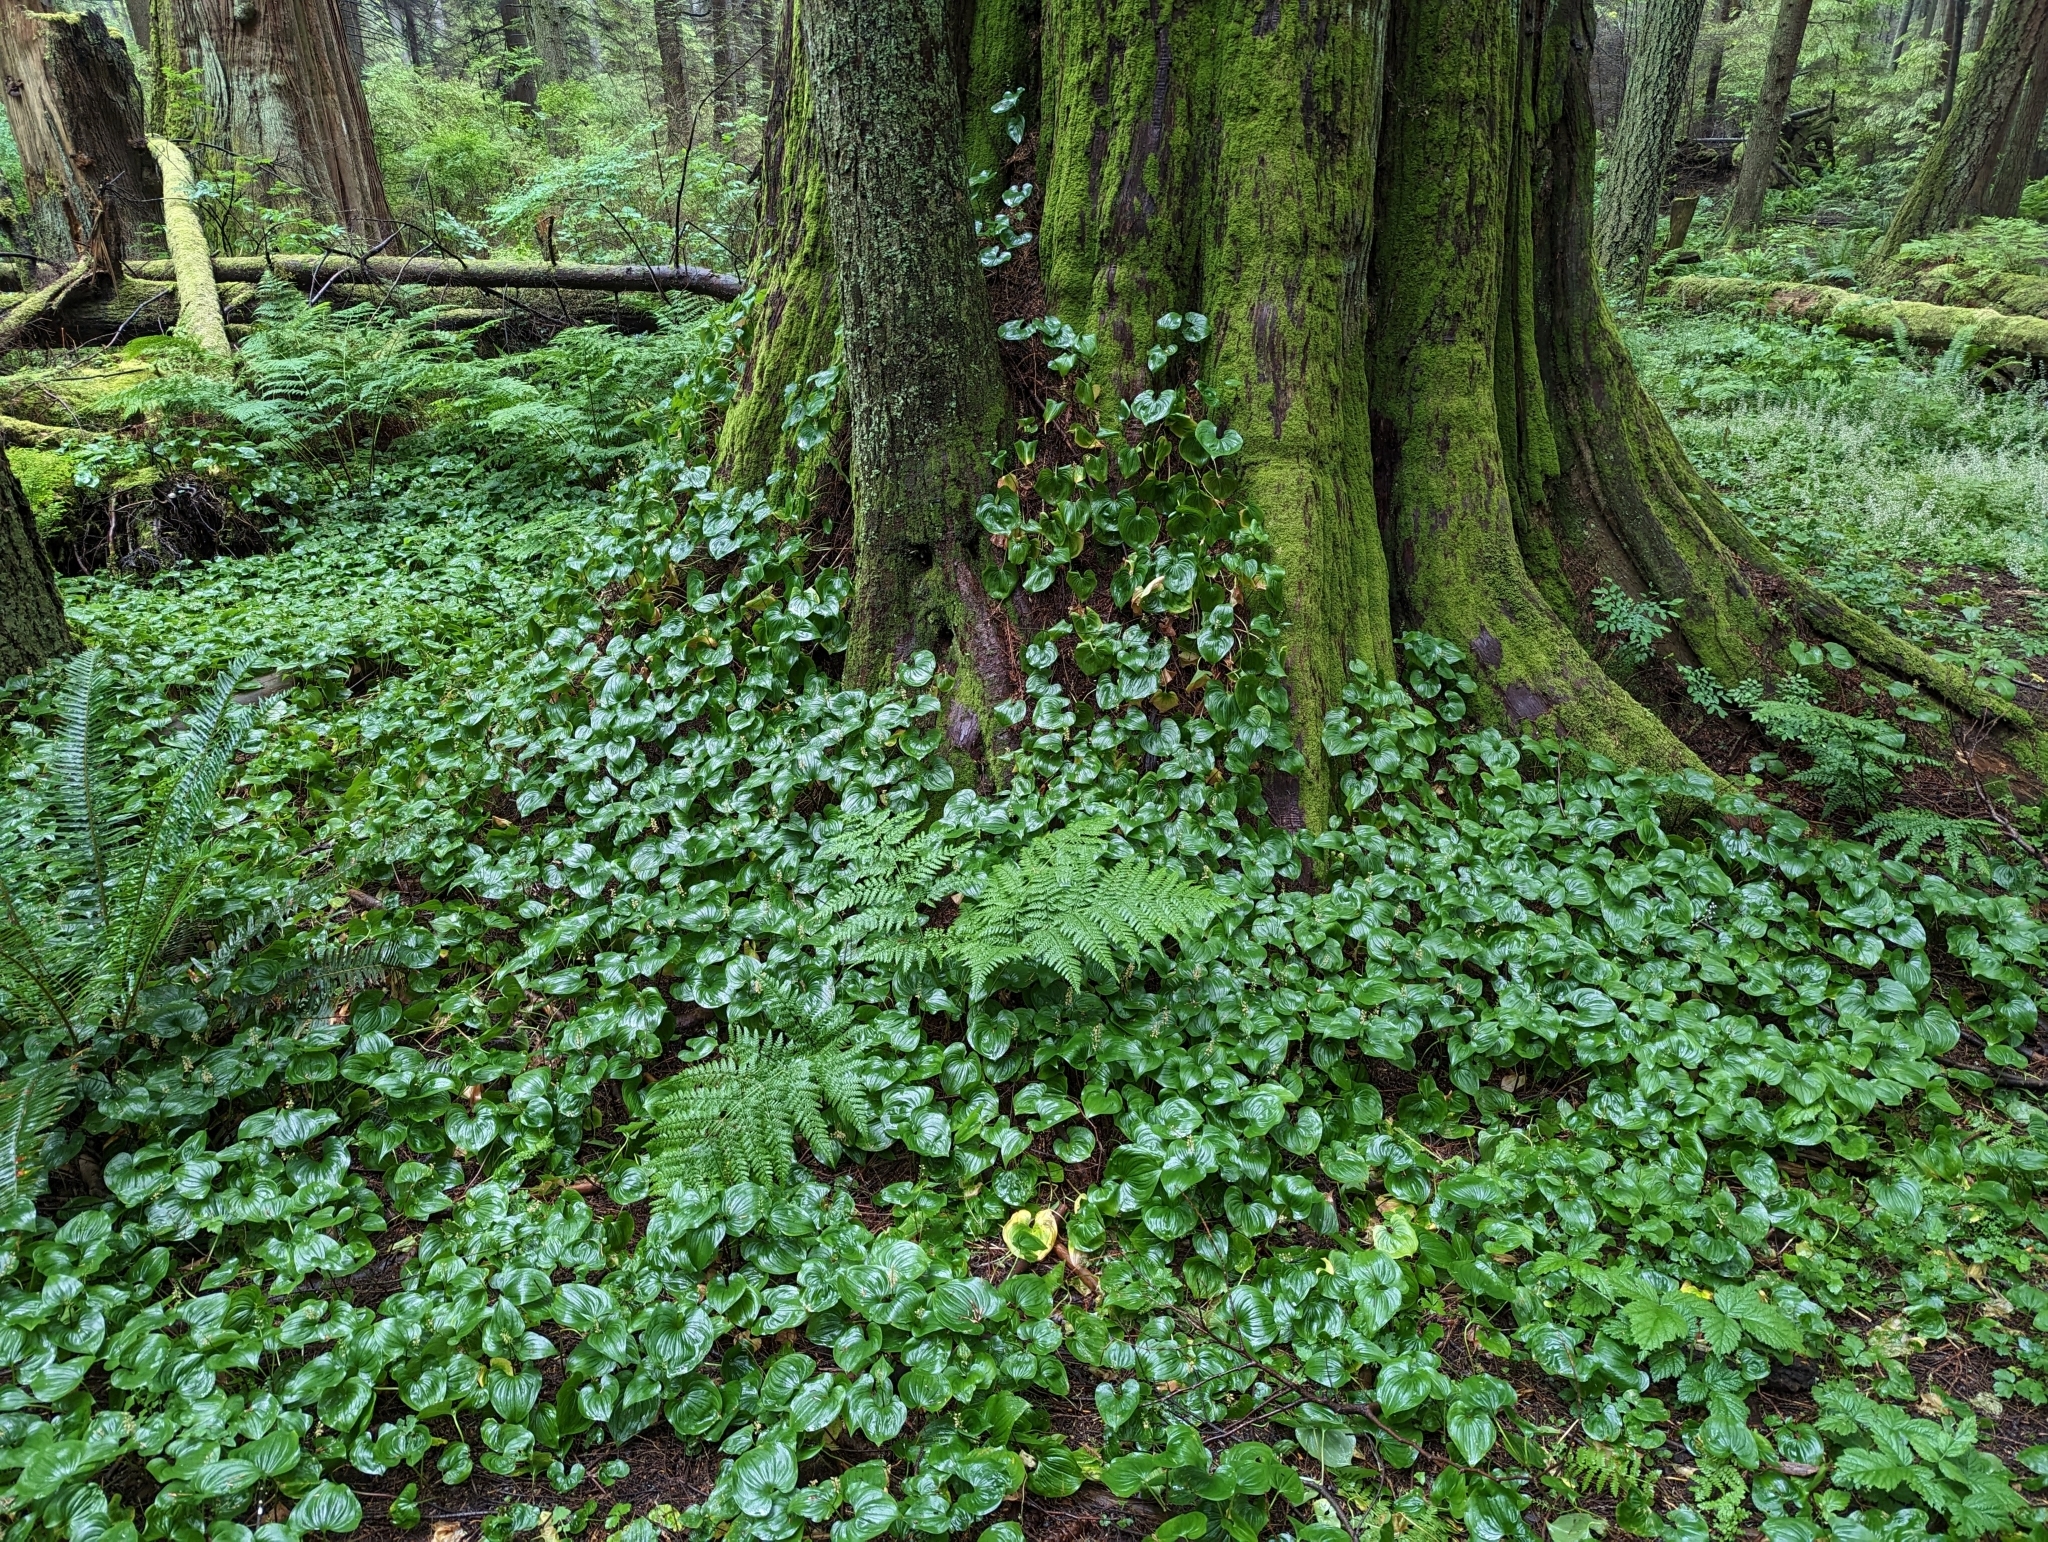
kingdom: Plantae
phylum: Tracheophyta
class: Liliopsida
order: Asparagales
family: Asparagaceae
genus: Maianthemum
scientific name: Maianthemum dilatatum
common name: False lily-of-the-valley
